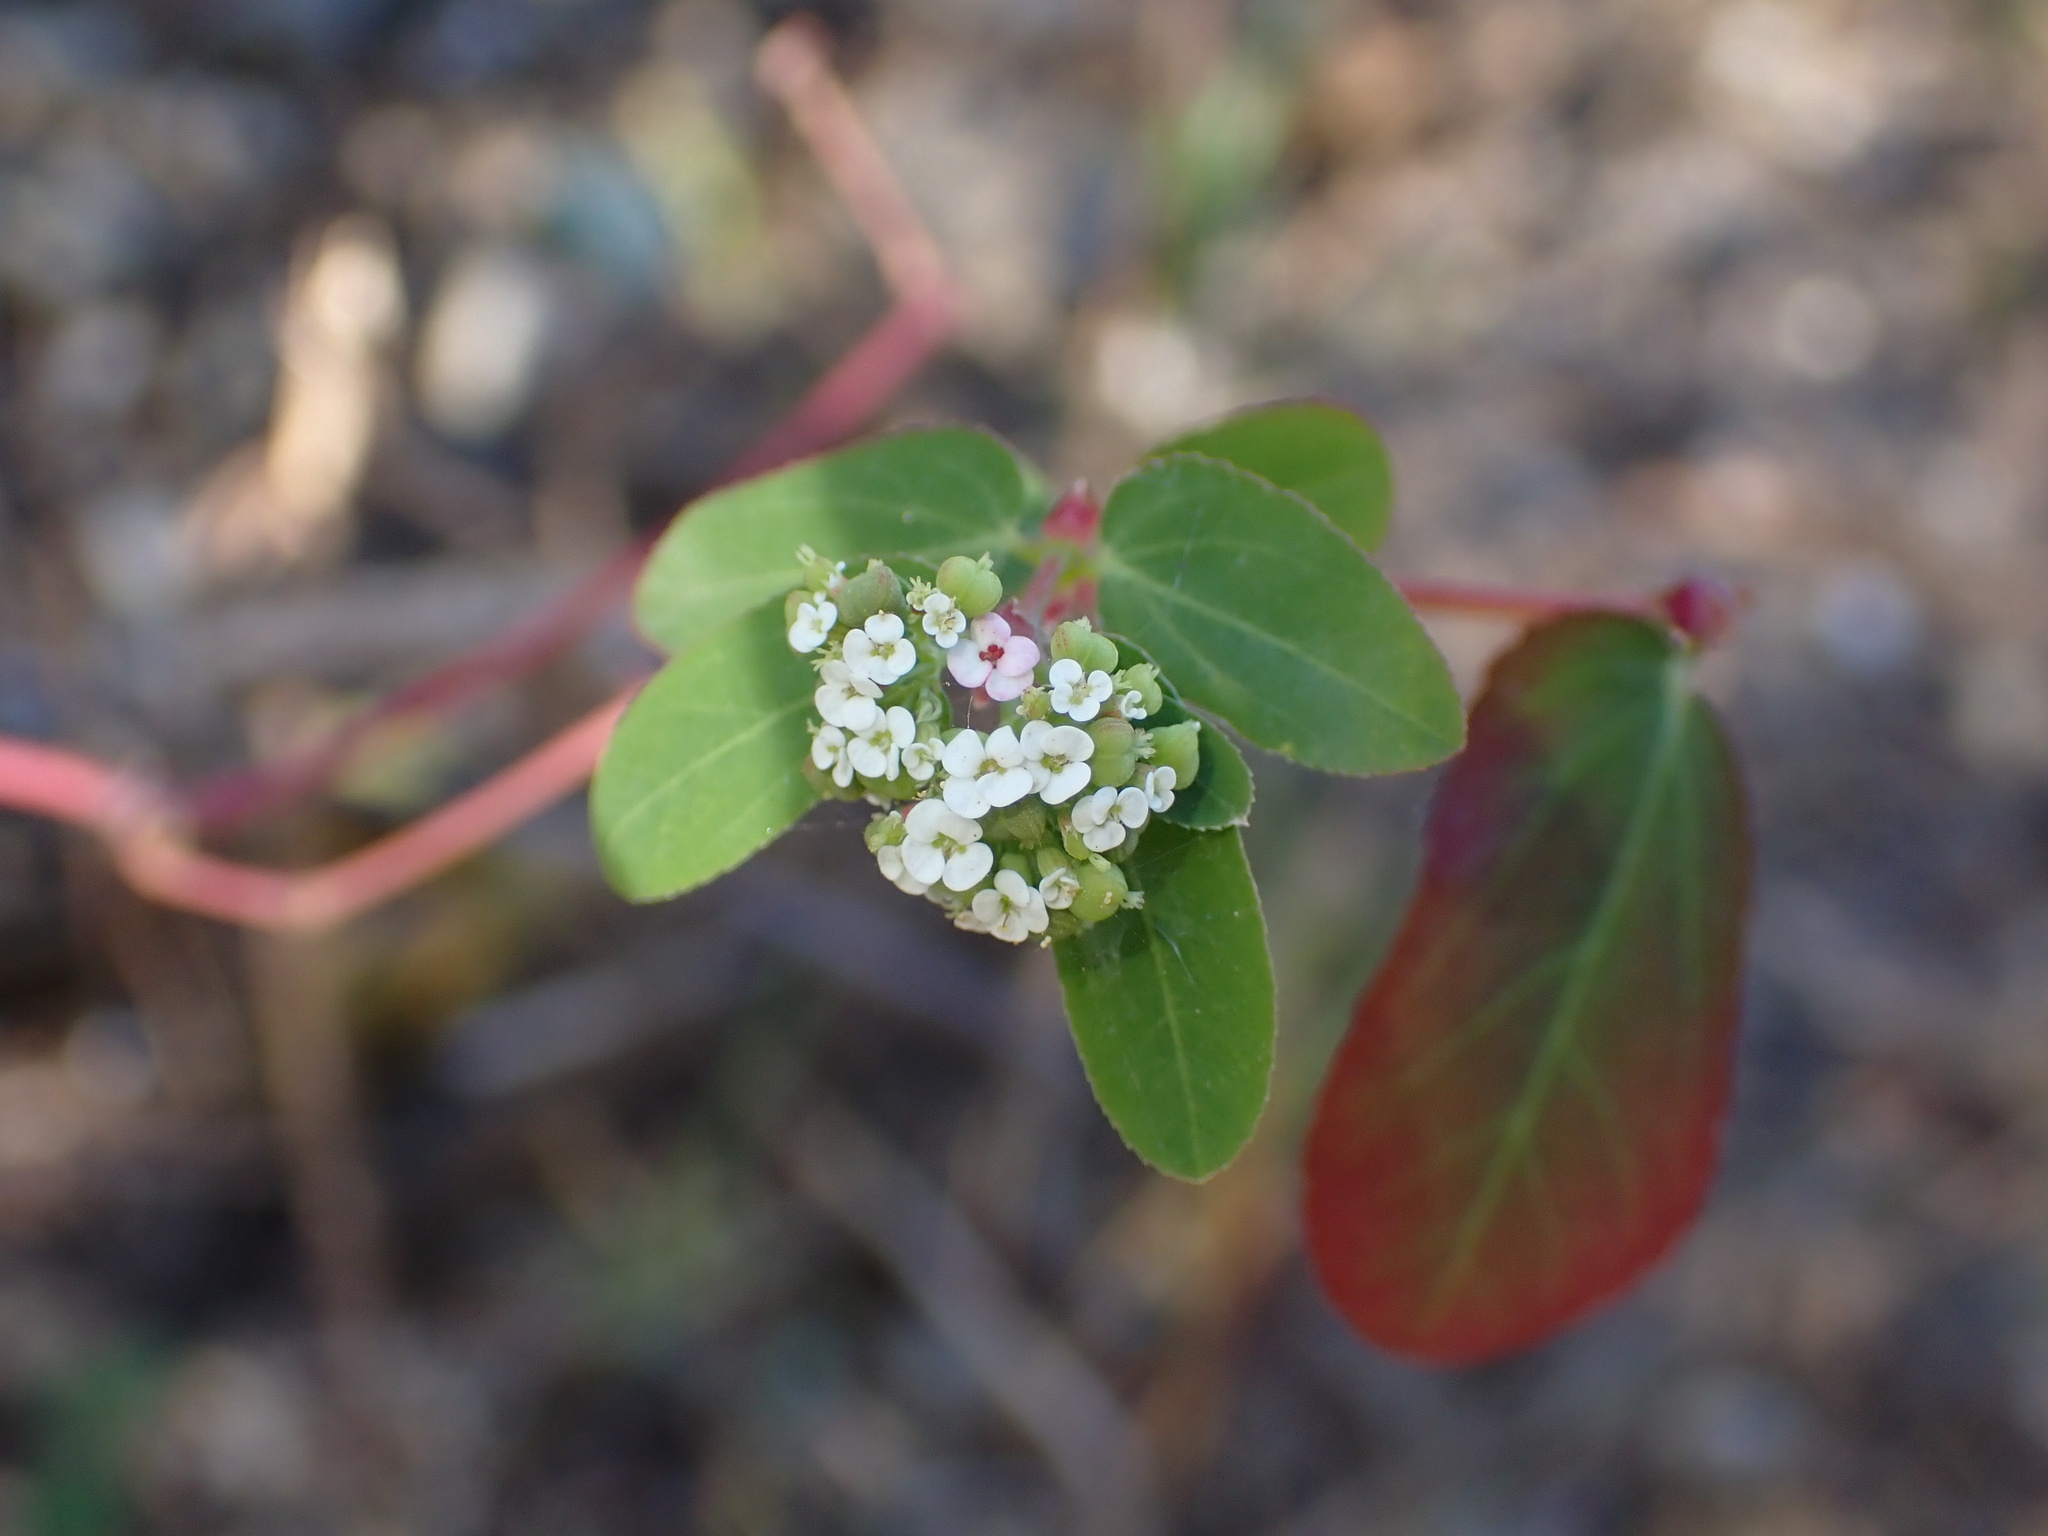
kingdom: Plantae
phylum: Tracheophyta
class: Magnoliopsida
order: Malpighiales
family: Euphorbiaceae
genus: Euphorbia
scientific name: Euphorbia hypericifolia
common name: Graceful sandmat
